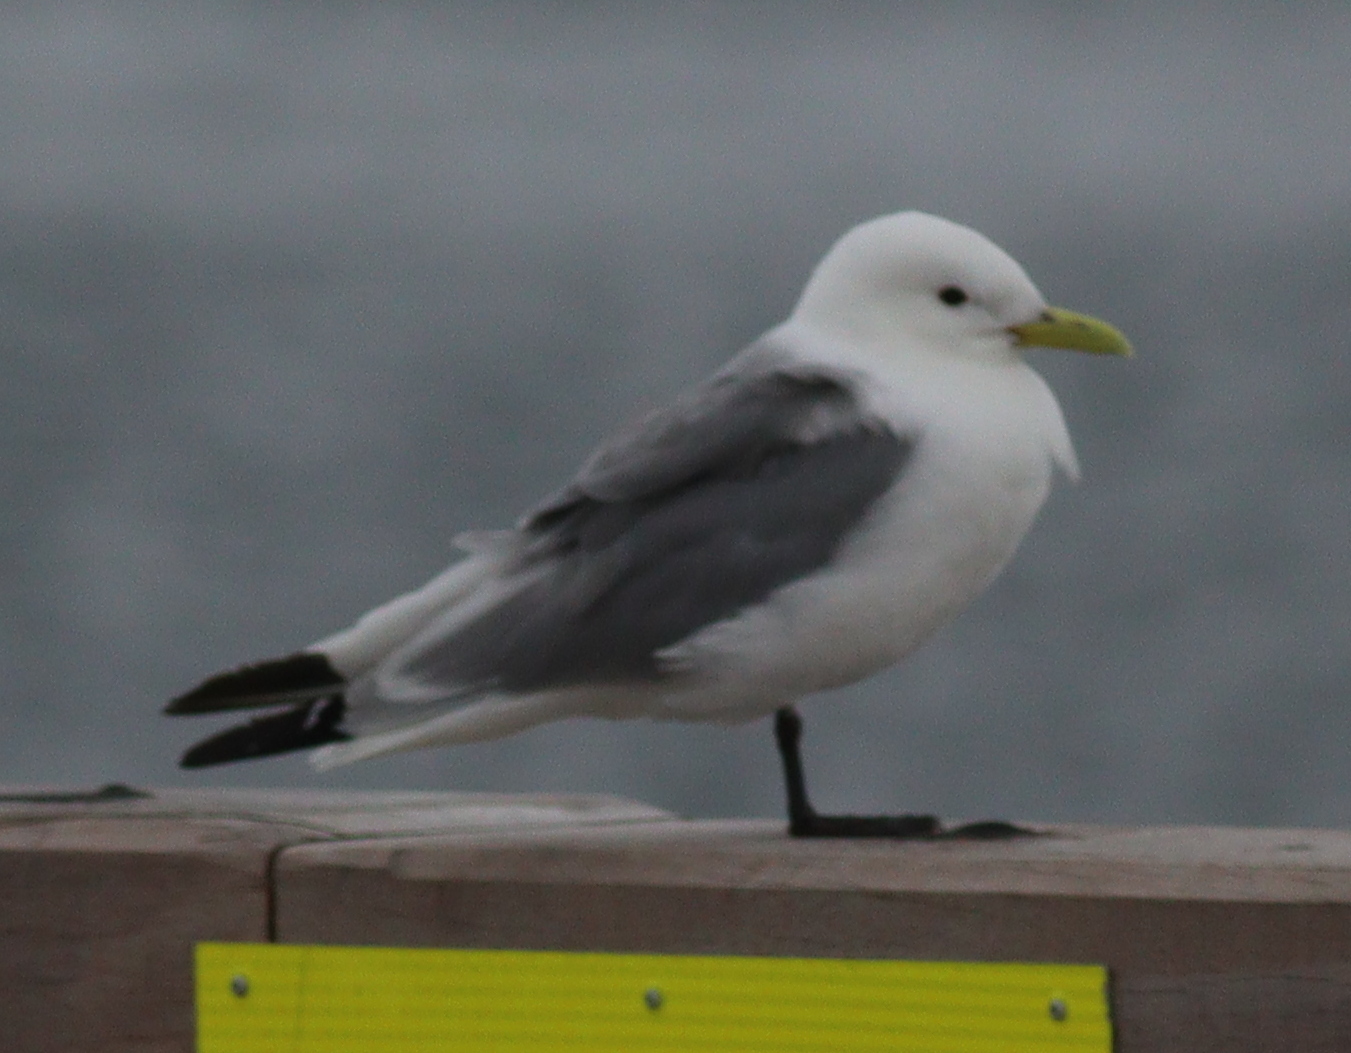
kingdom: Animalia
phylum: Chordata
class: Aves
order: Charadriiformes
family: Laridae
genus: Rissa
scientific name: Rissa tridactyla
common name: Black-legged kittiwake
